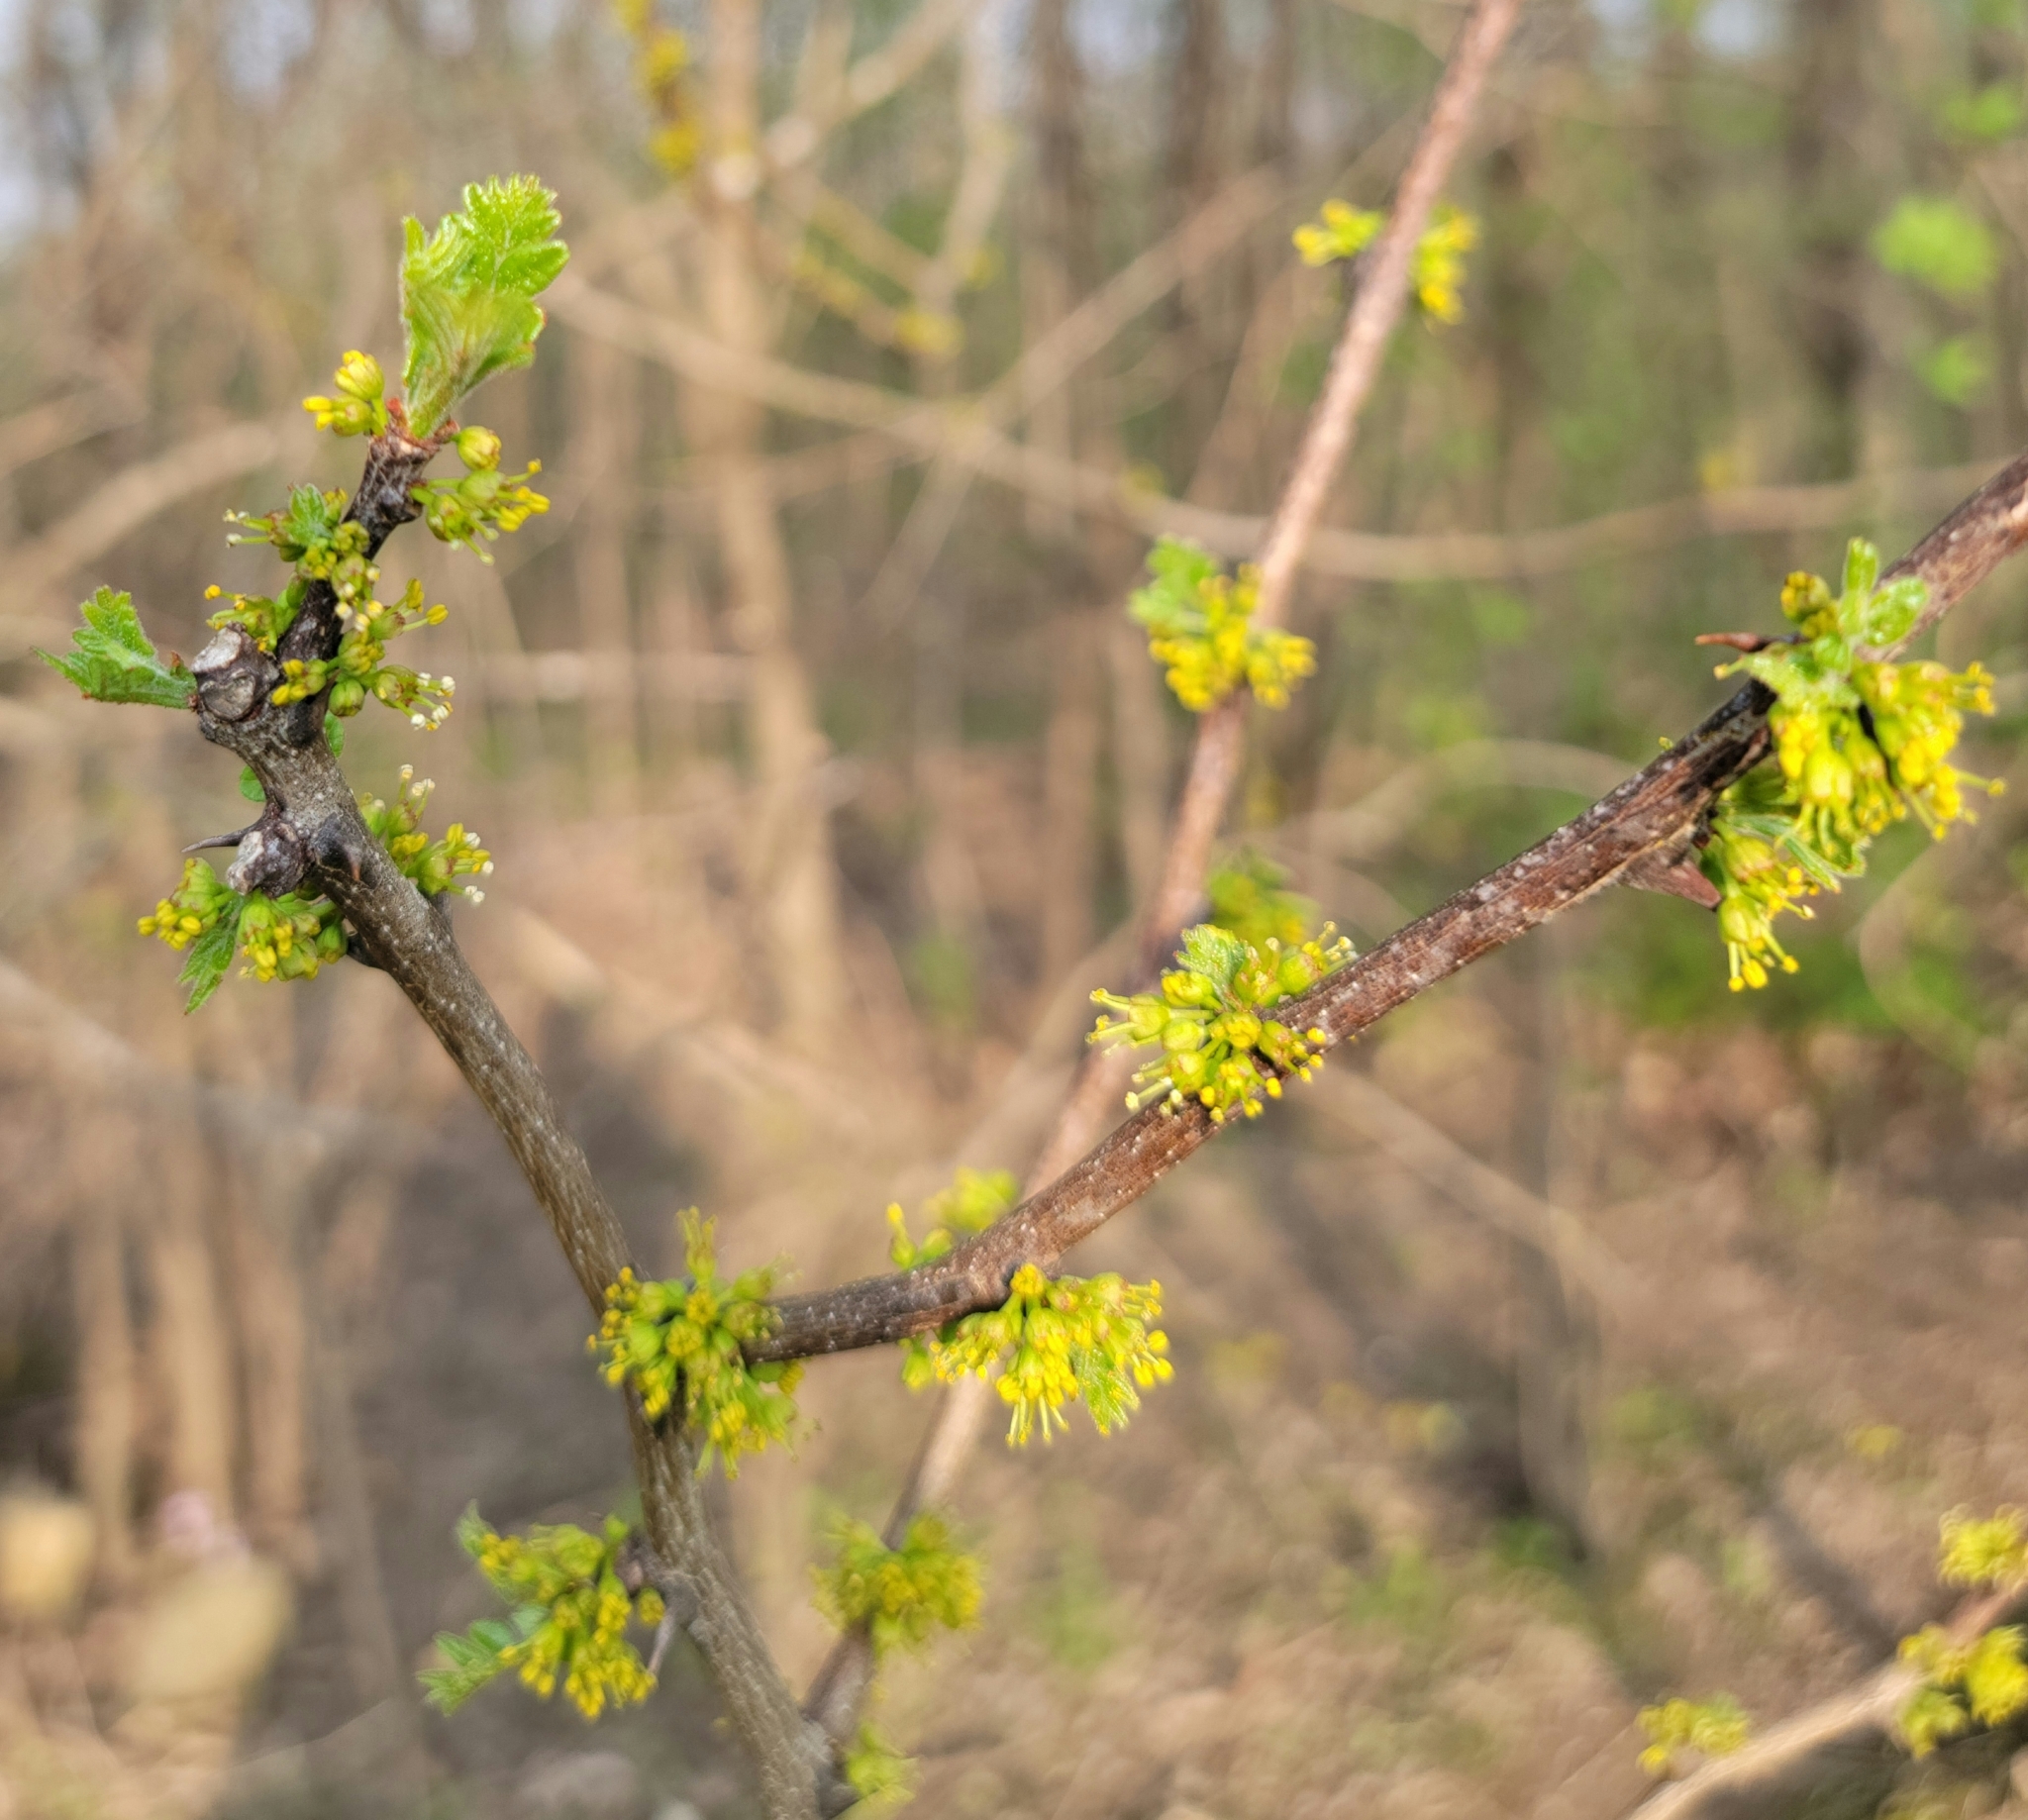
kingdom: Plantae
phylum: Tracheophyta
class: Magnoliopsida
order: Sapindales
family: Rutaceae
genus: Zanthoxylum
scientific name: Zanthoxylum americanum
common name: Northern prickly-ash
